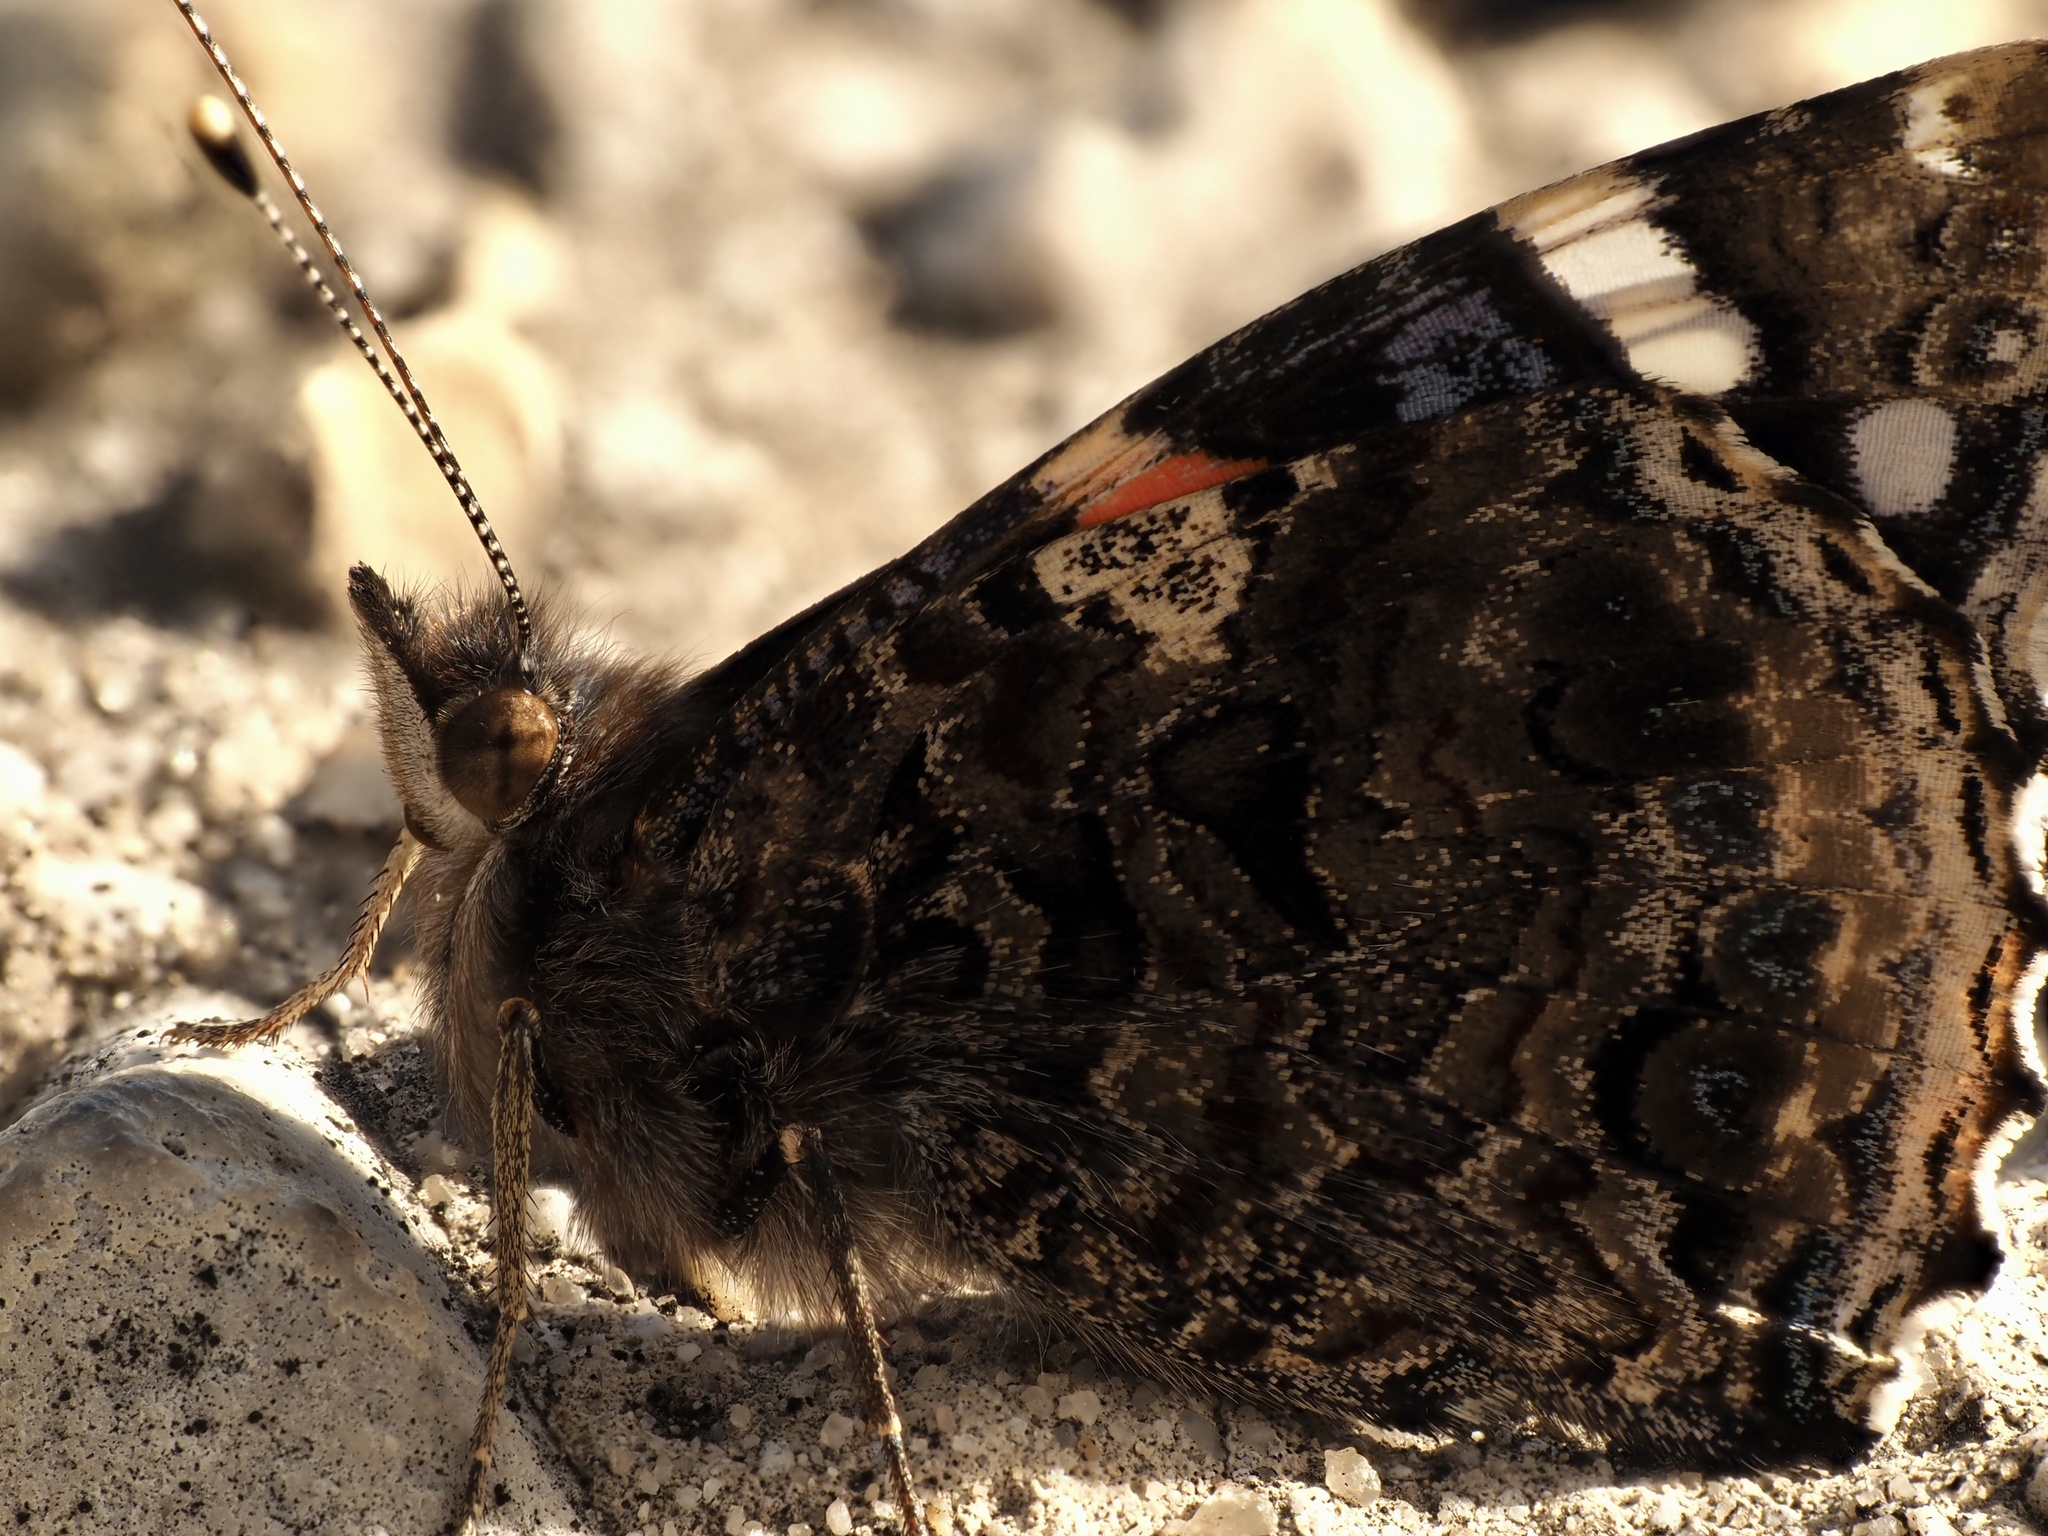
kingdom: Animalia
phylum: Arthropoda
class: Insecta
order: Lepidoptera
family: Nymphalidae
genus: Vanessa
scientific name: Vanessa atalanta
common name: Red admiral
